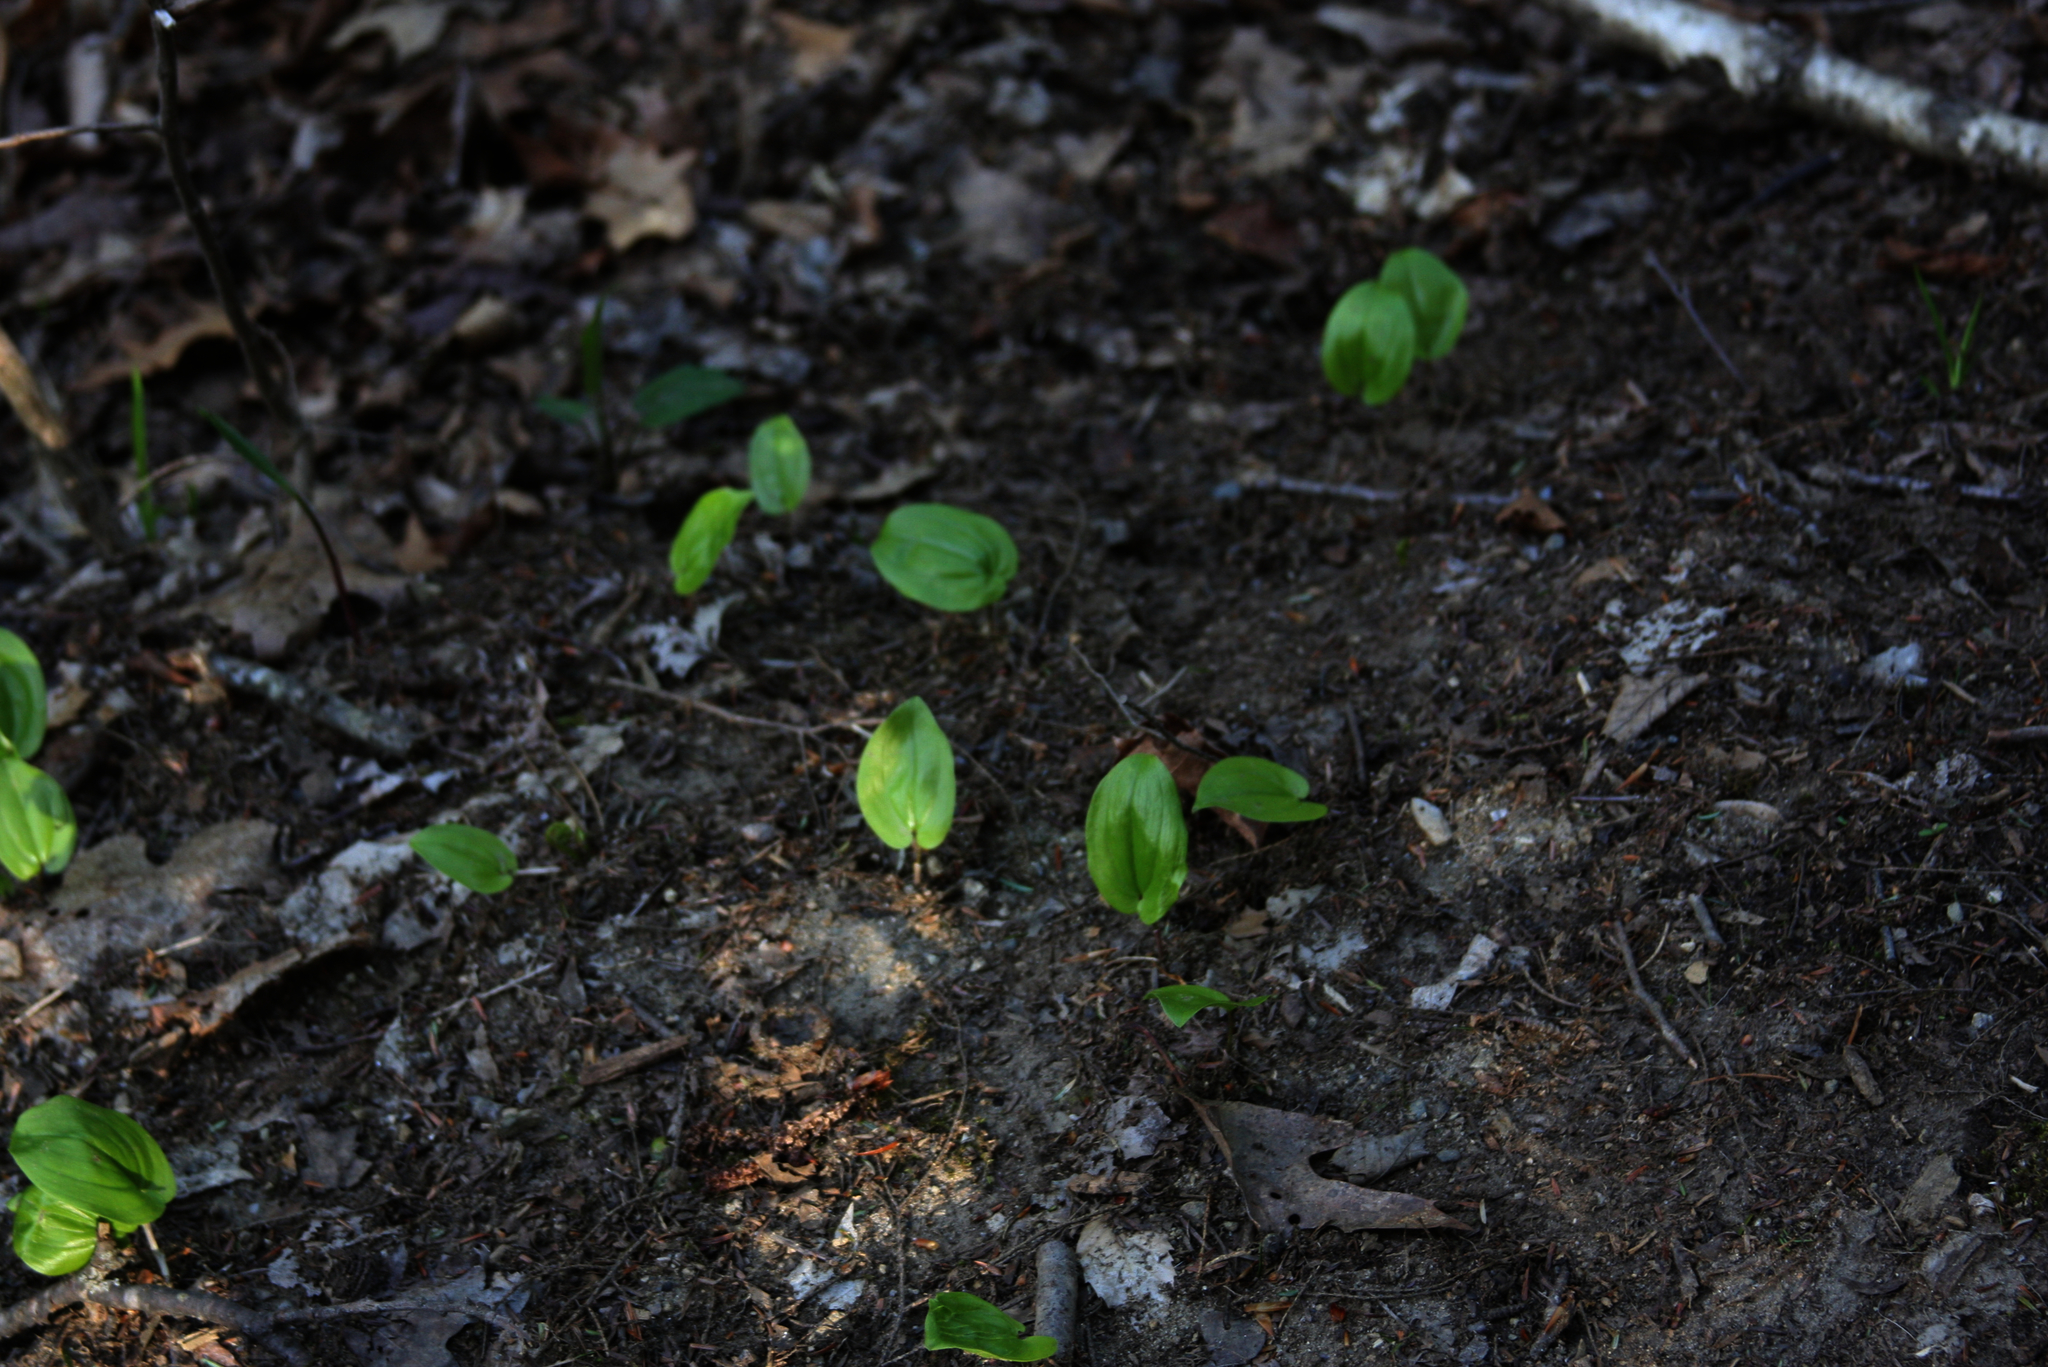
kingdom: Plantae
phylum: Tracheophyta
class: Liliopsida
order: Asparagales
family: Asparagaceae
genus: Maianthemum
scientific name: Maianthemum canadense
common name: False lily-of-the-valley
